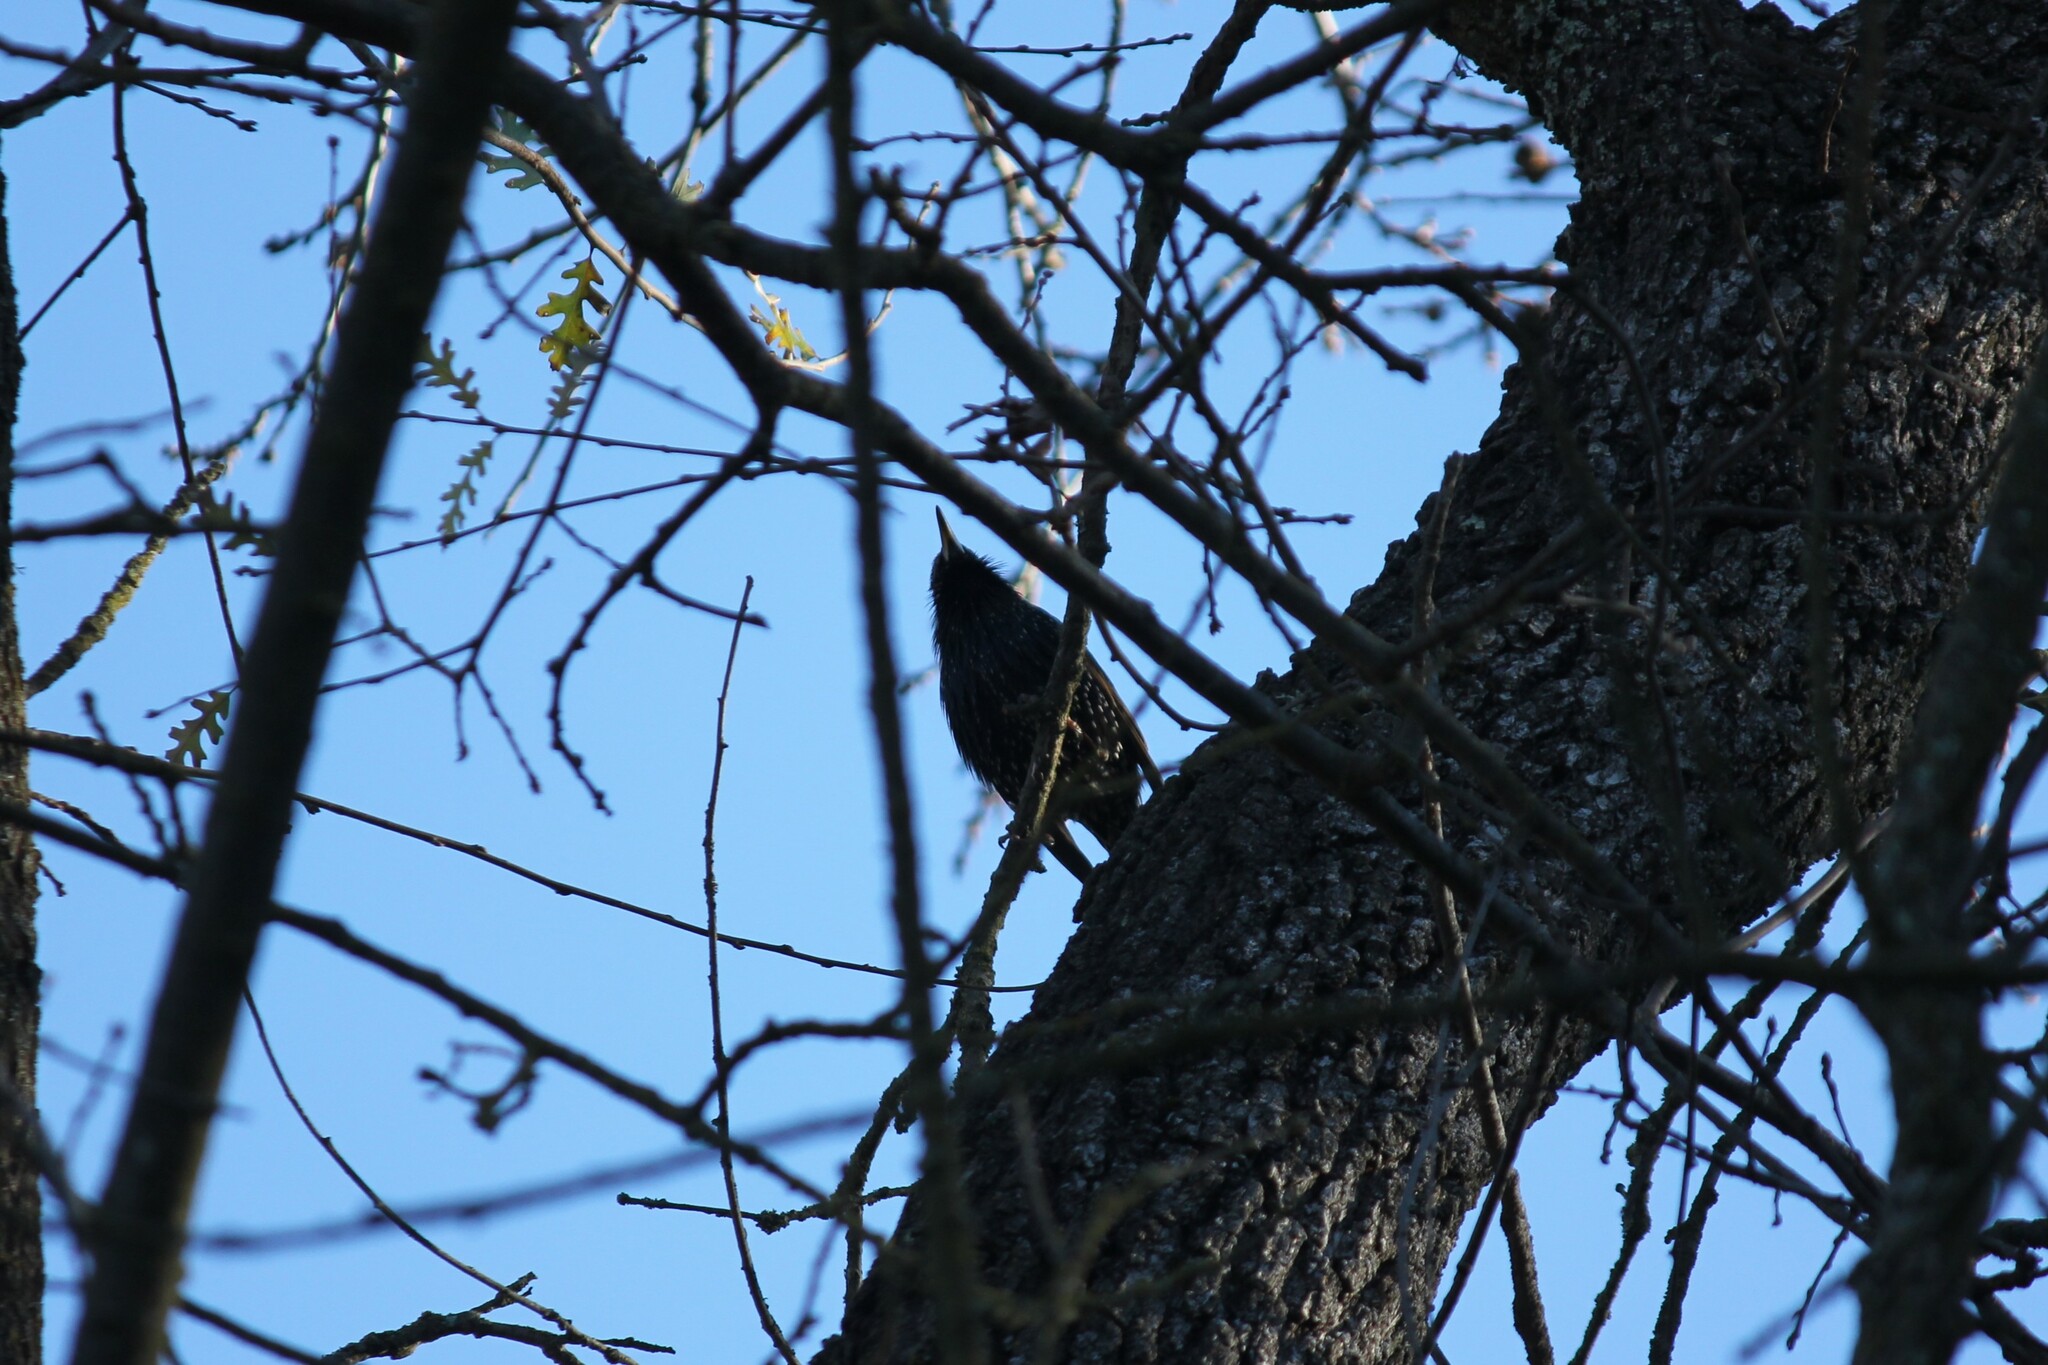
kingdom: Animalia
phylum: Chordata
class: Aves
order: Passeriformes
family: Sturnidae
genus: Sturnus
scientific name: Sturnus vulgaris
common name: Common starling
